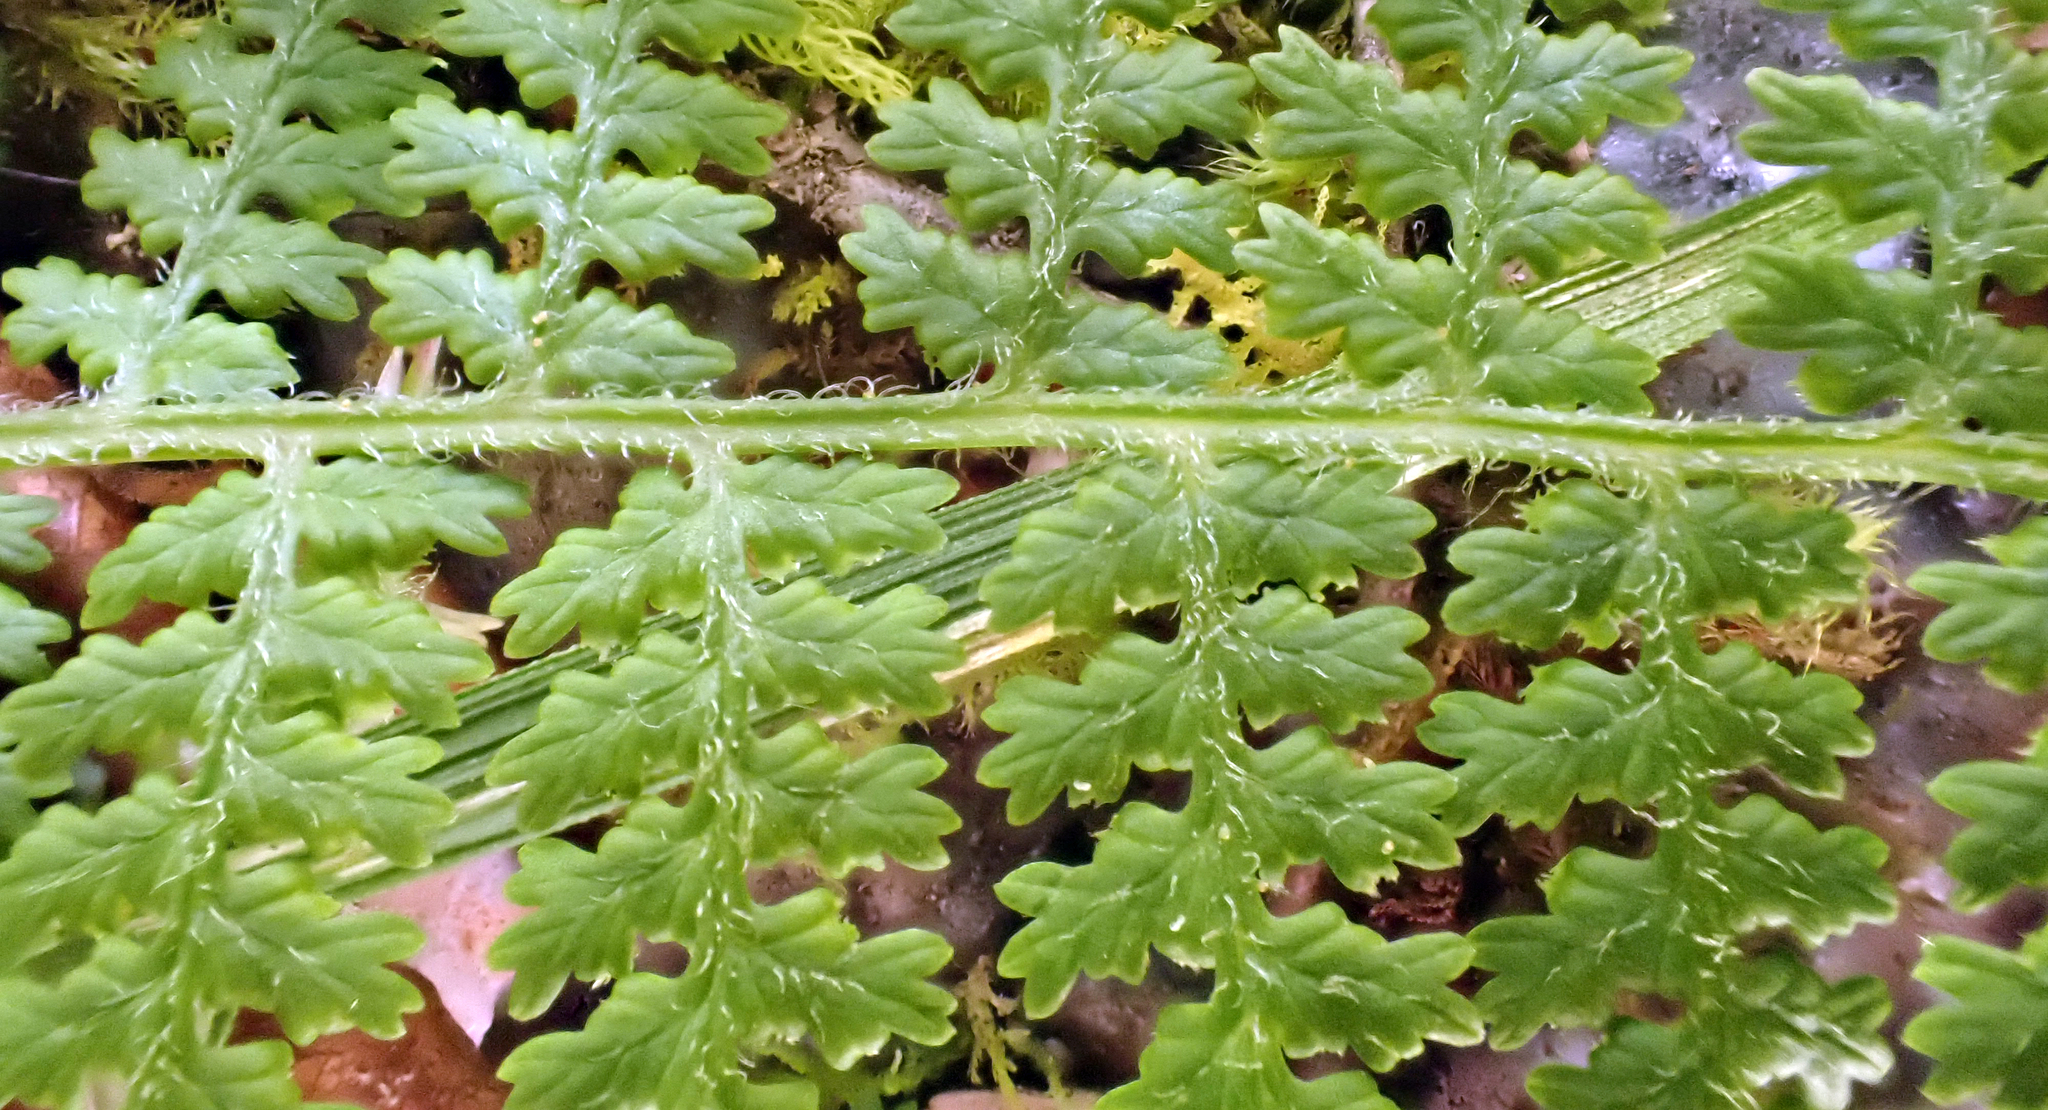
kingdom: Plantae
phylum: Tracheophyta
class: Polypodiopsida
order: Polypodiales
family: Dennstaedtiaceae
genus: Hypolepis
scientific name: Hypolepis millefolium
